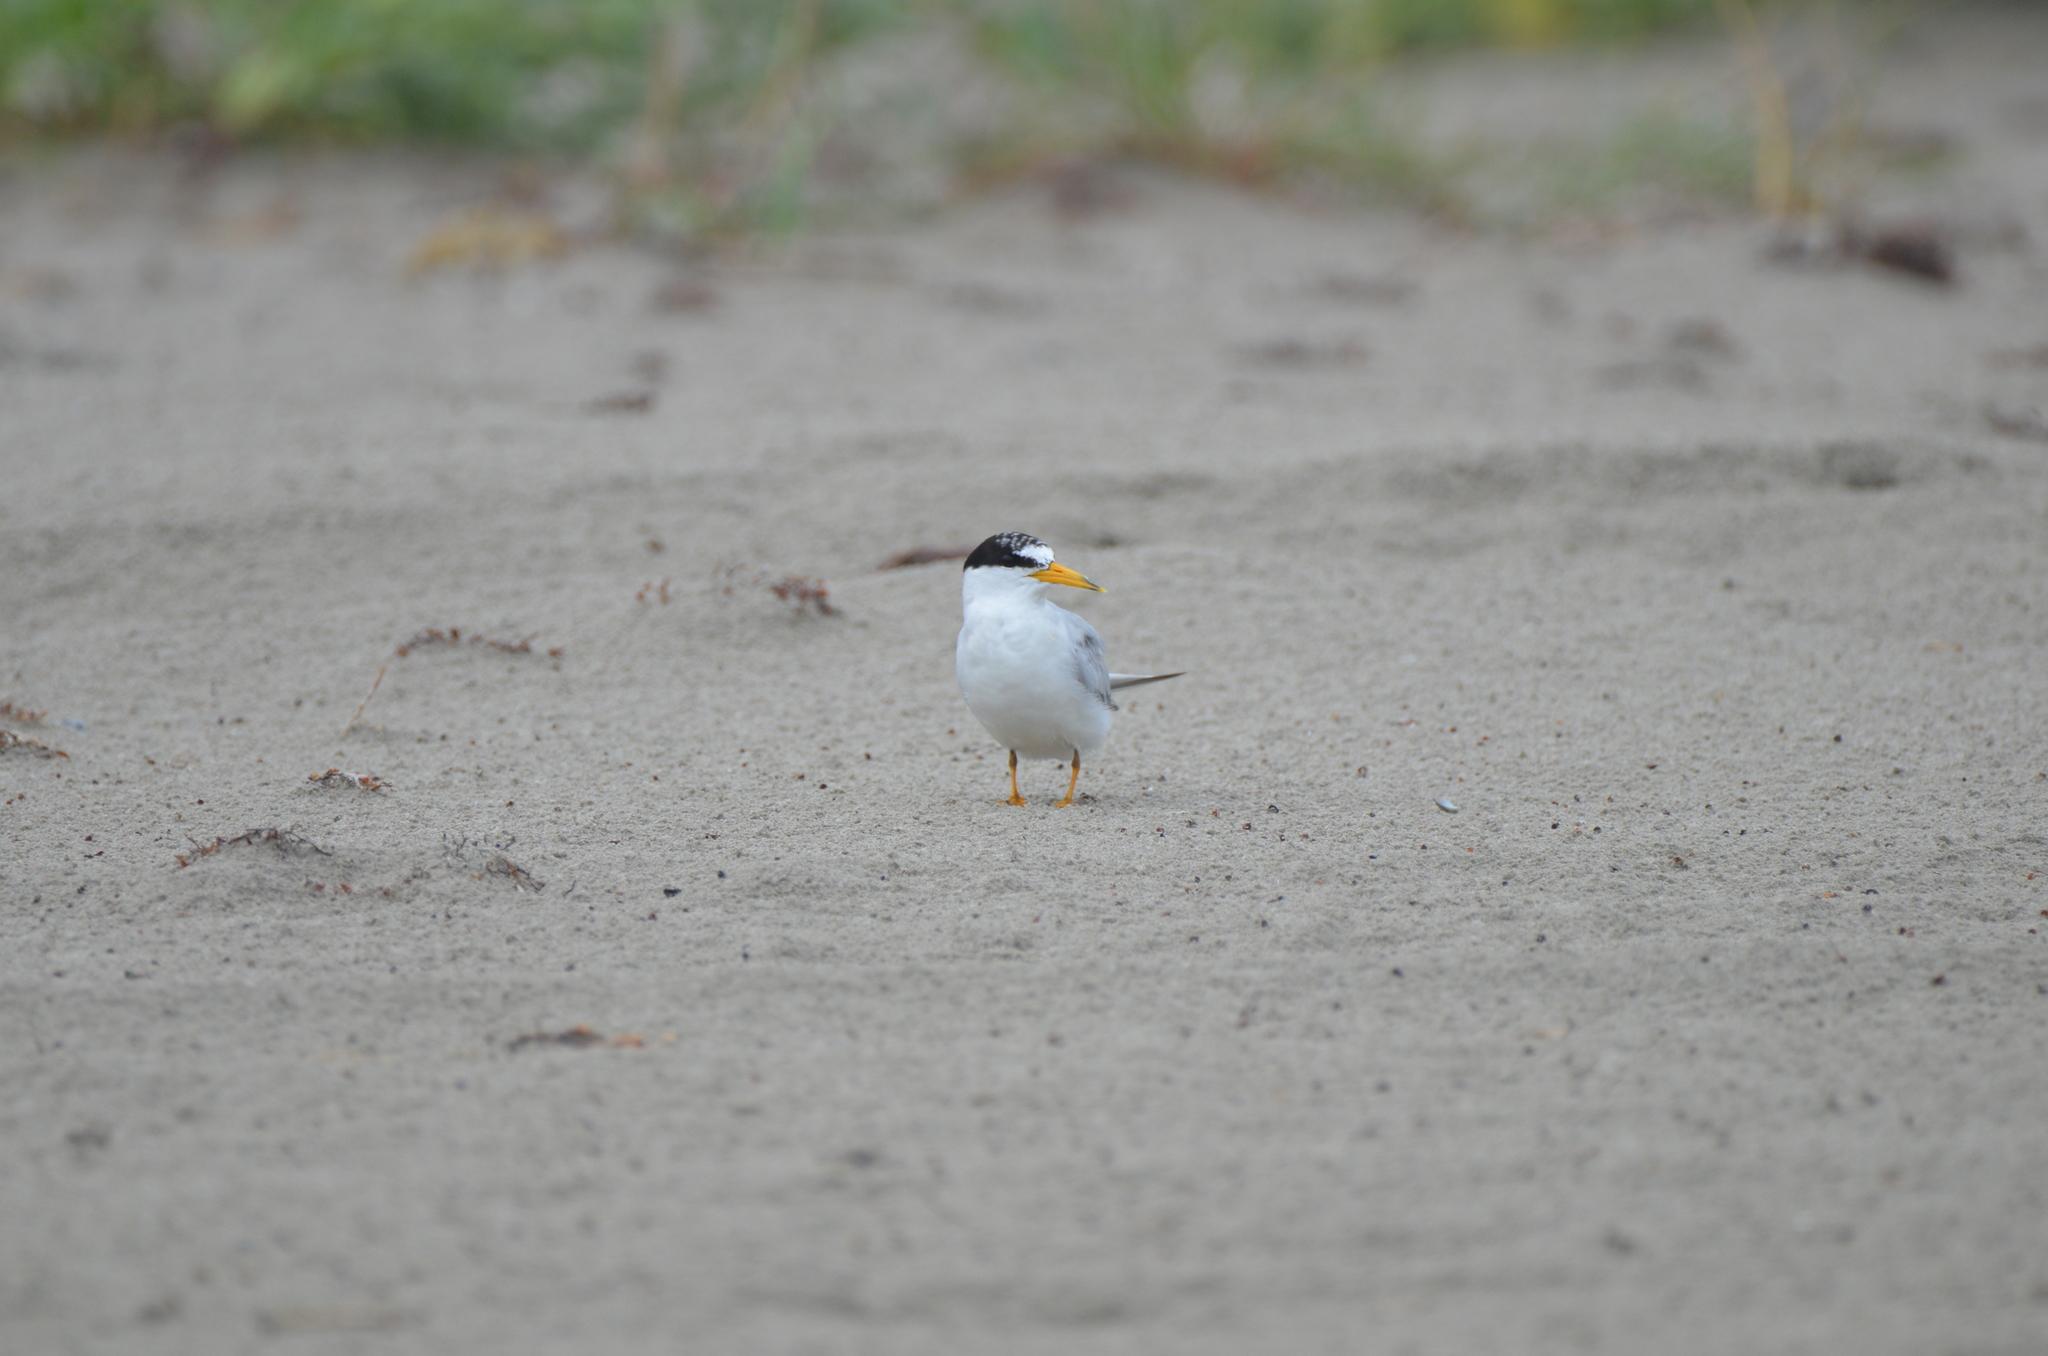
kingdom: Animalia
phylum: Chordata
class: Aves
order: Charadriiformes
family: Laridae
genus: Sternula
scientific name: Sternula antillarum
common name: Least tern
